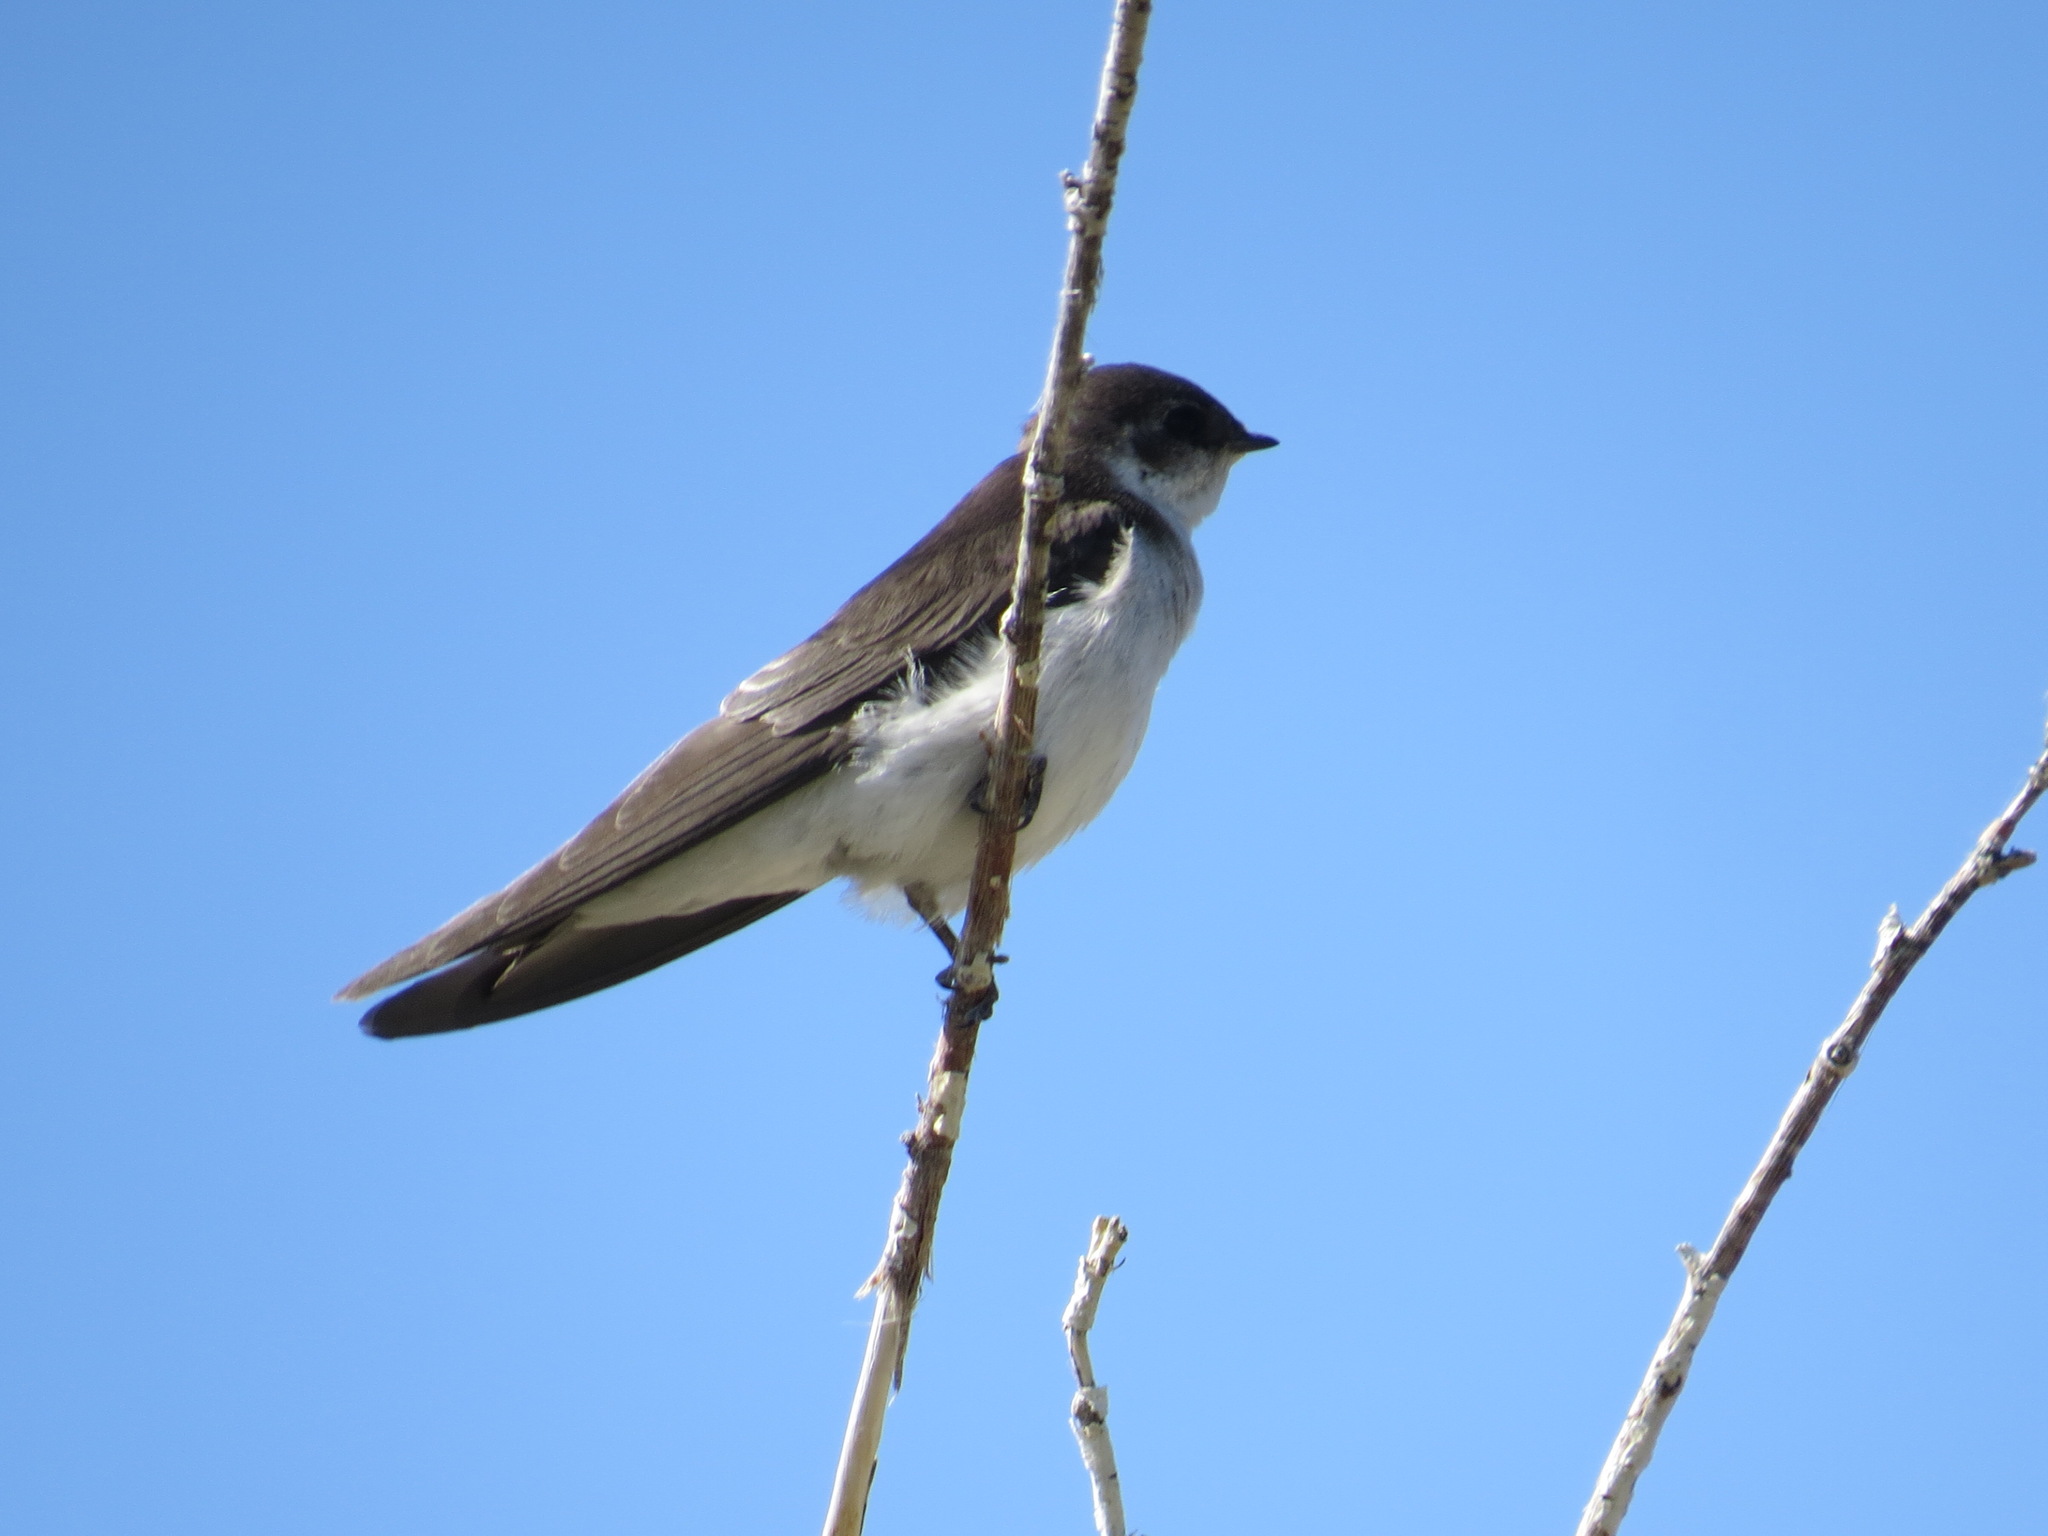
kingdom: Animalia
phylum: Chordata
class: Aves
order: Passeriformes
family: Hirundinidae
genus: Tachycineta
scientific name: Tachycineta thalassina
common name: Violet-green swallow
